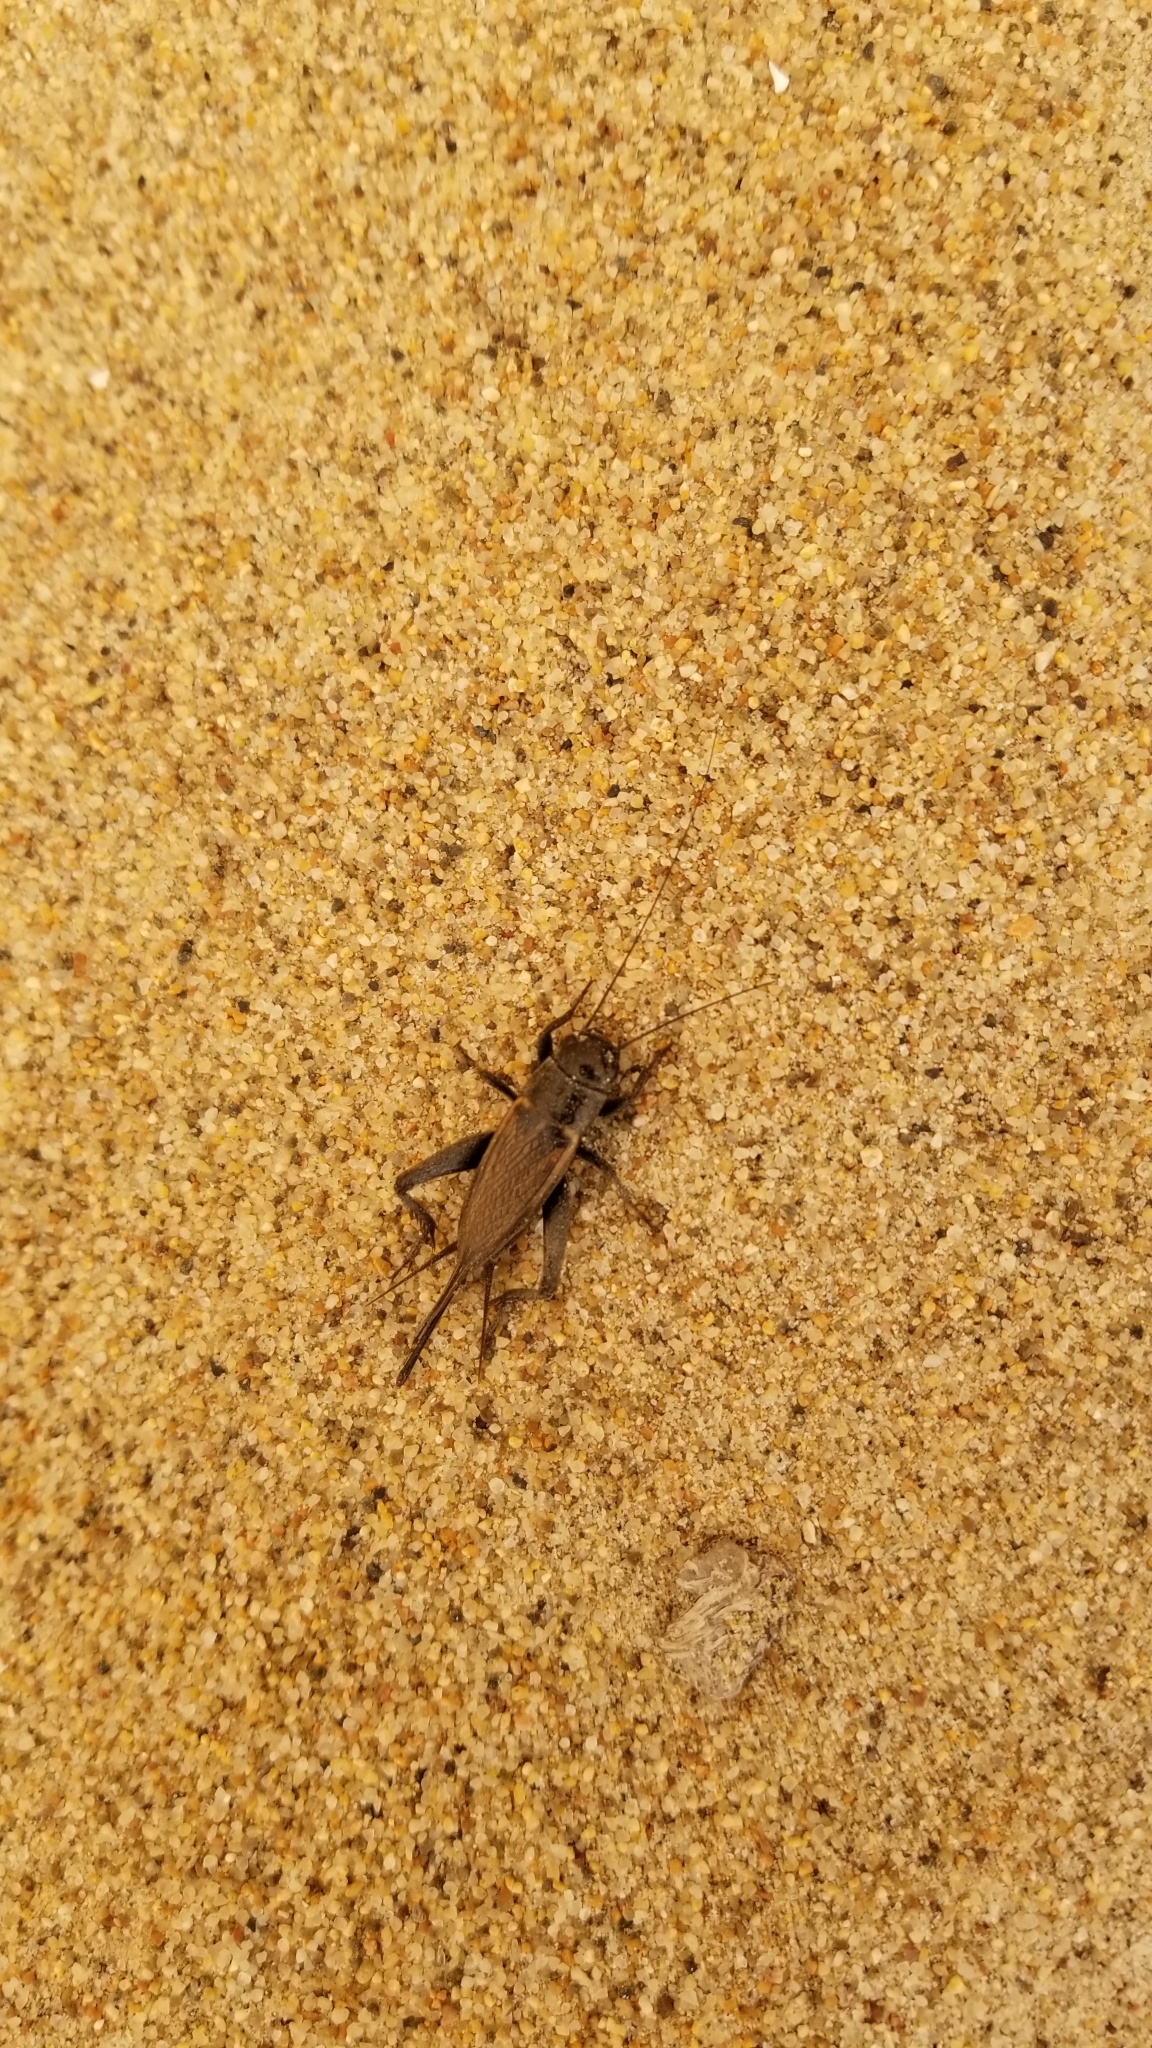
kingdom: Animalia
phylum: Arthropoda
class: Insecta
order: Orthoptera
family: Gryllidae
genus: Gryllus
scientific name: Gryllus
